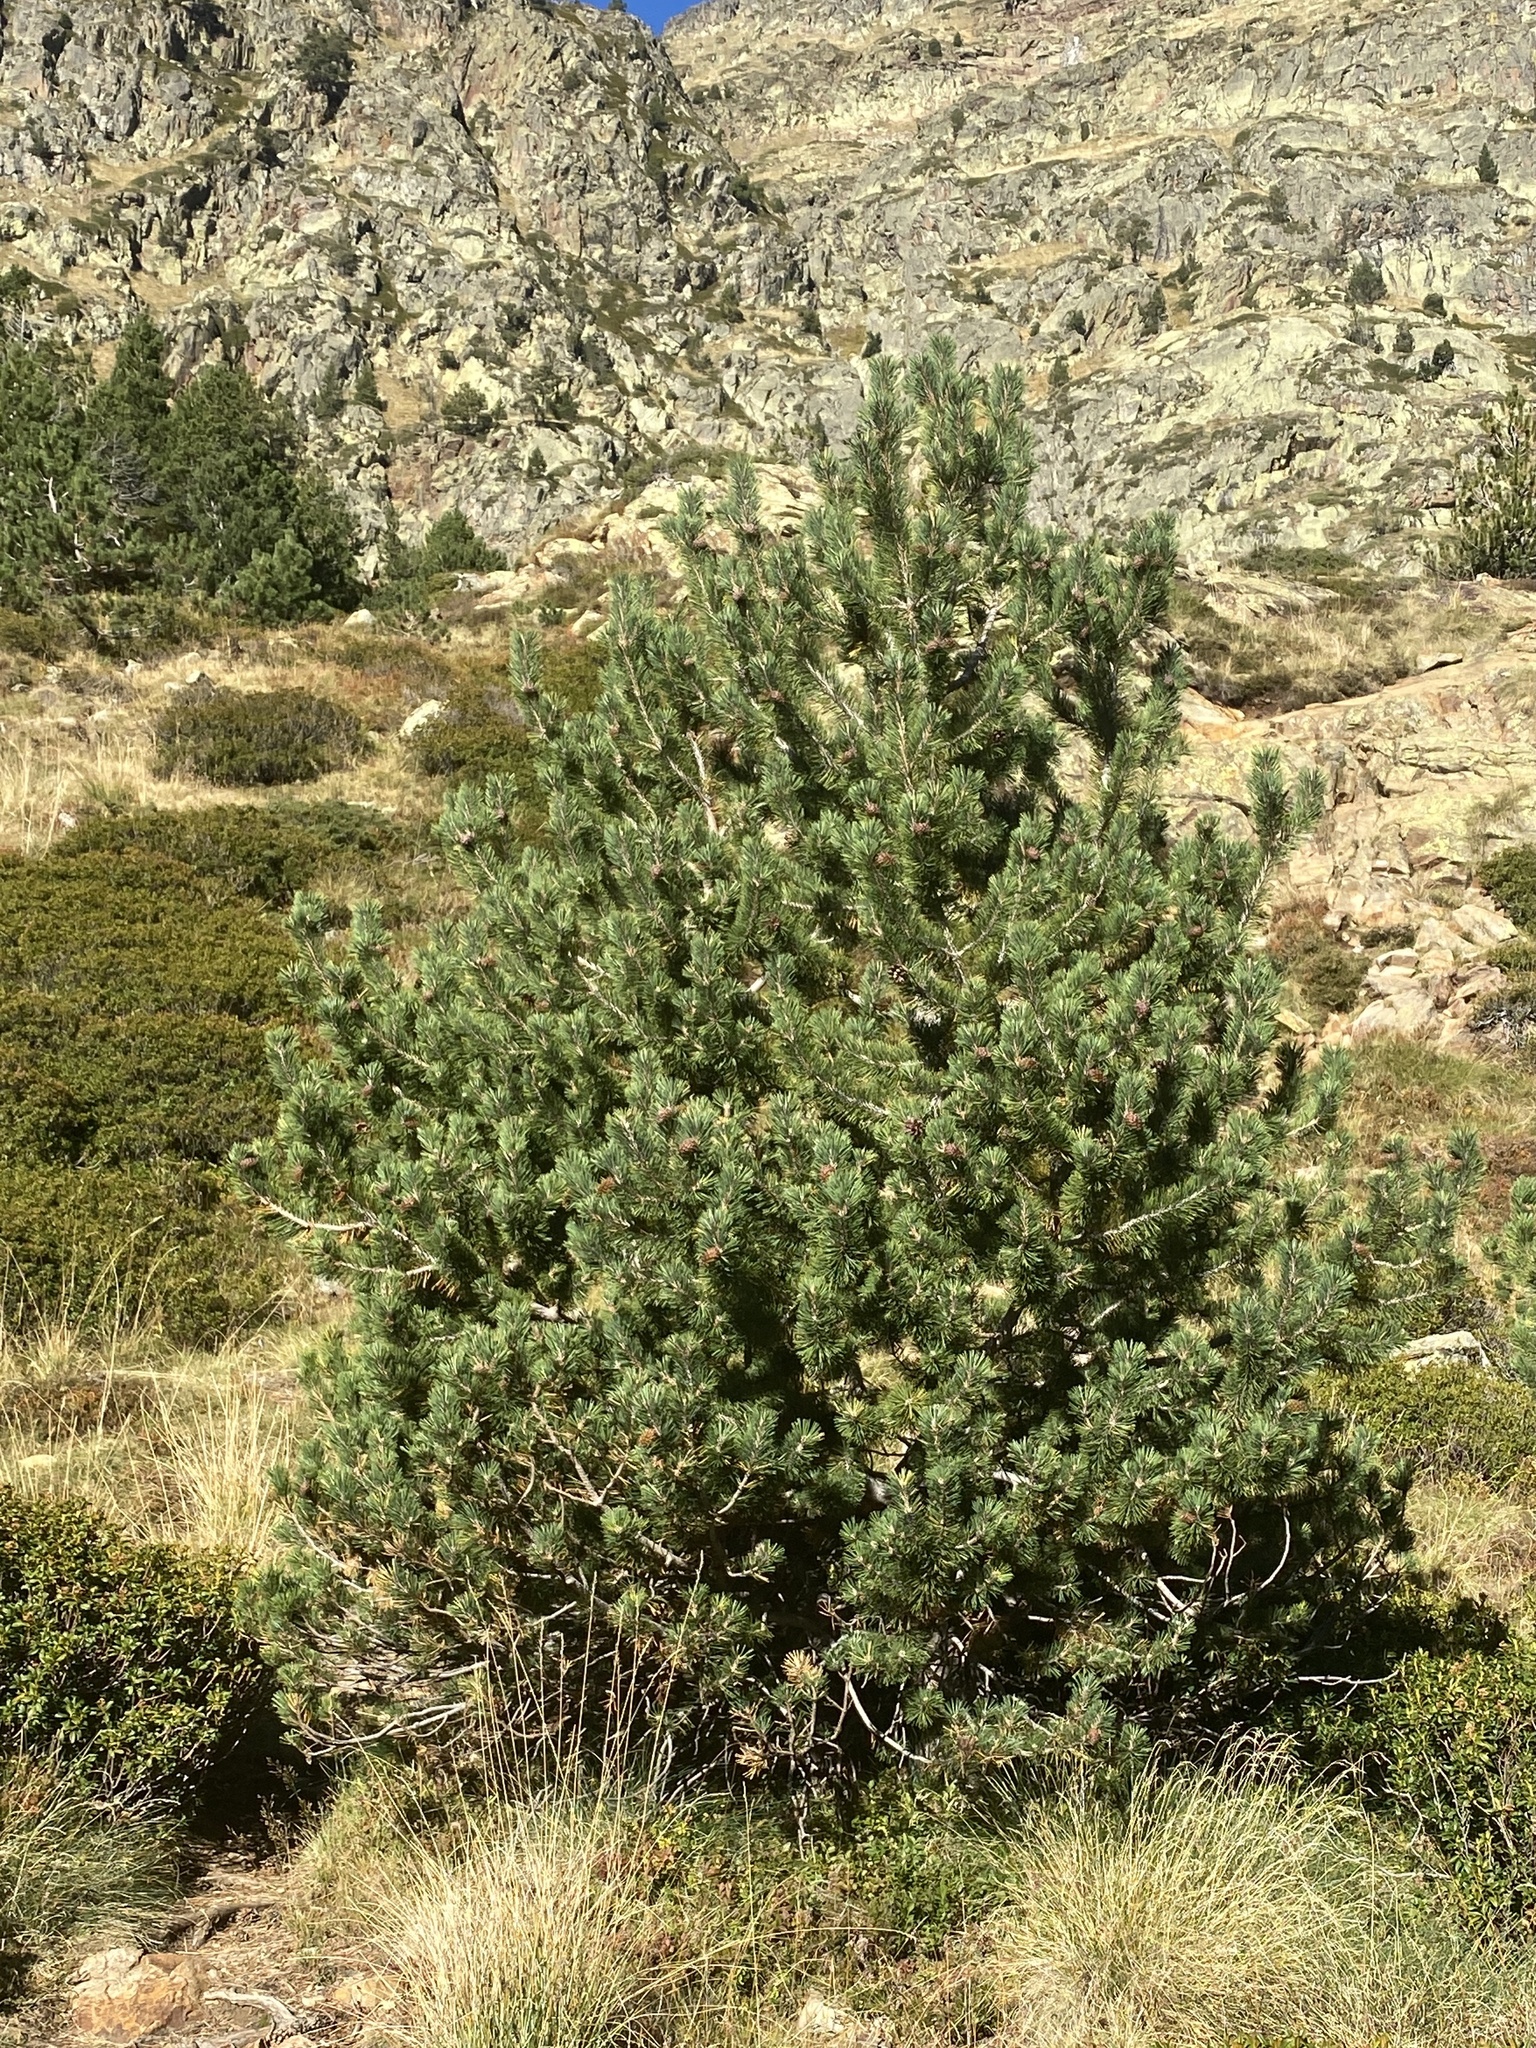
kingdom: Plantae
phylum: Tracheophyta
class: Pinopsida
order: Pinales
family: Pinaceae
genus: Pinus
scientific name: Pinus uncinata
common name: Mountain pine
